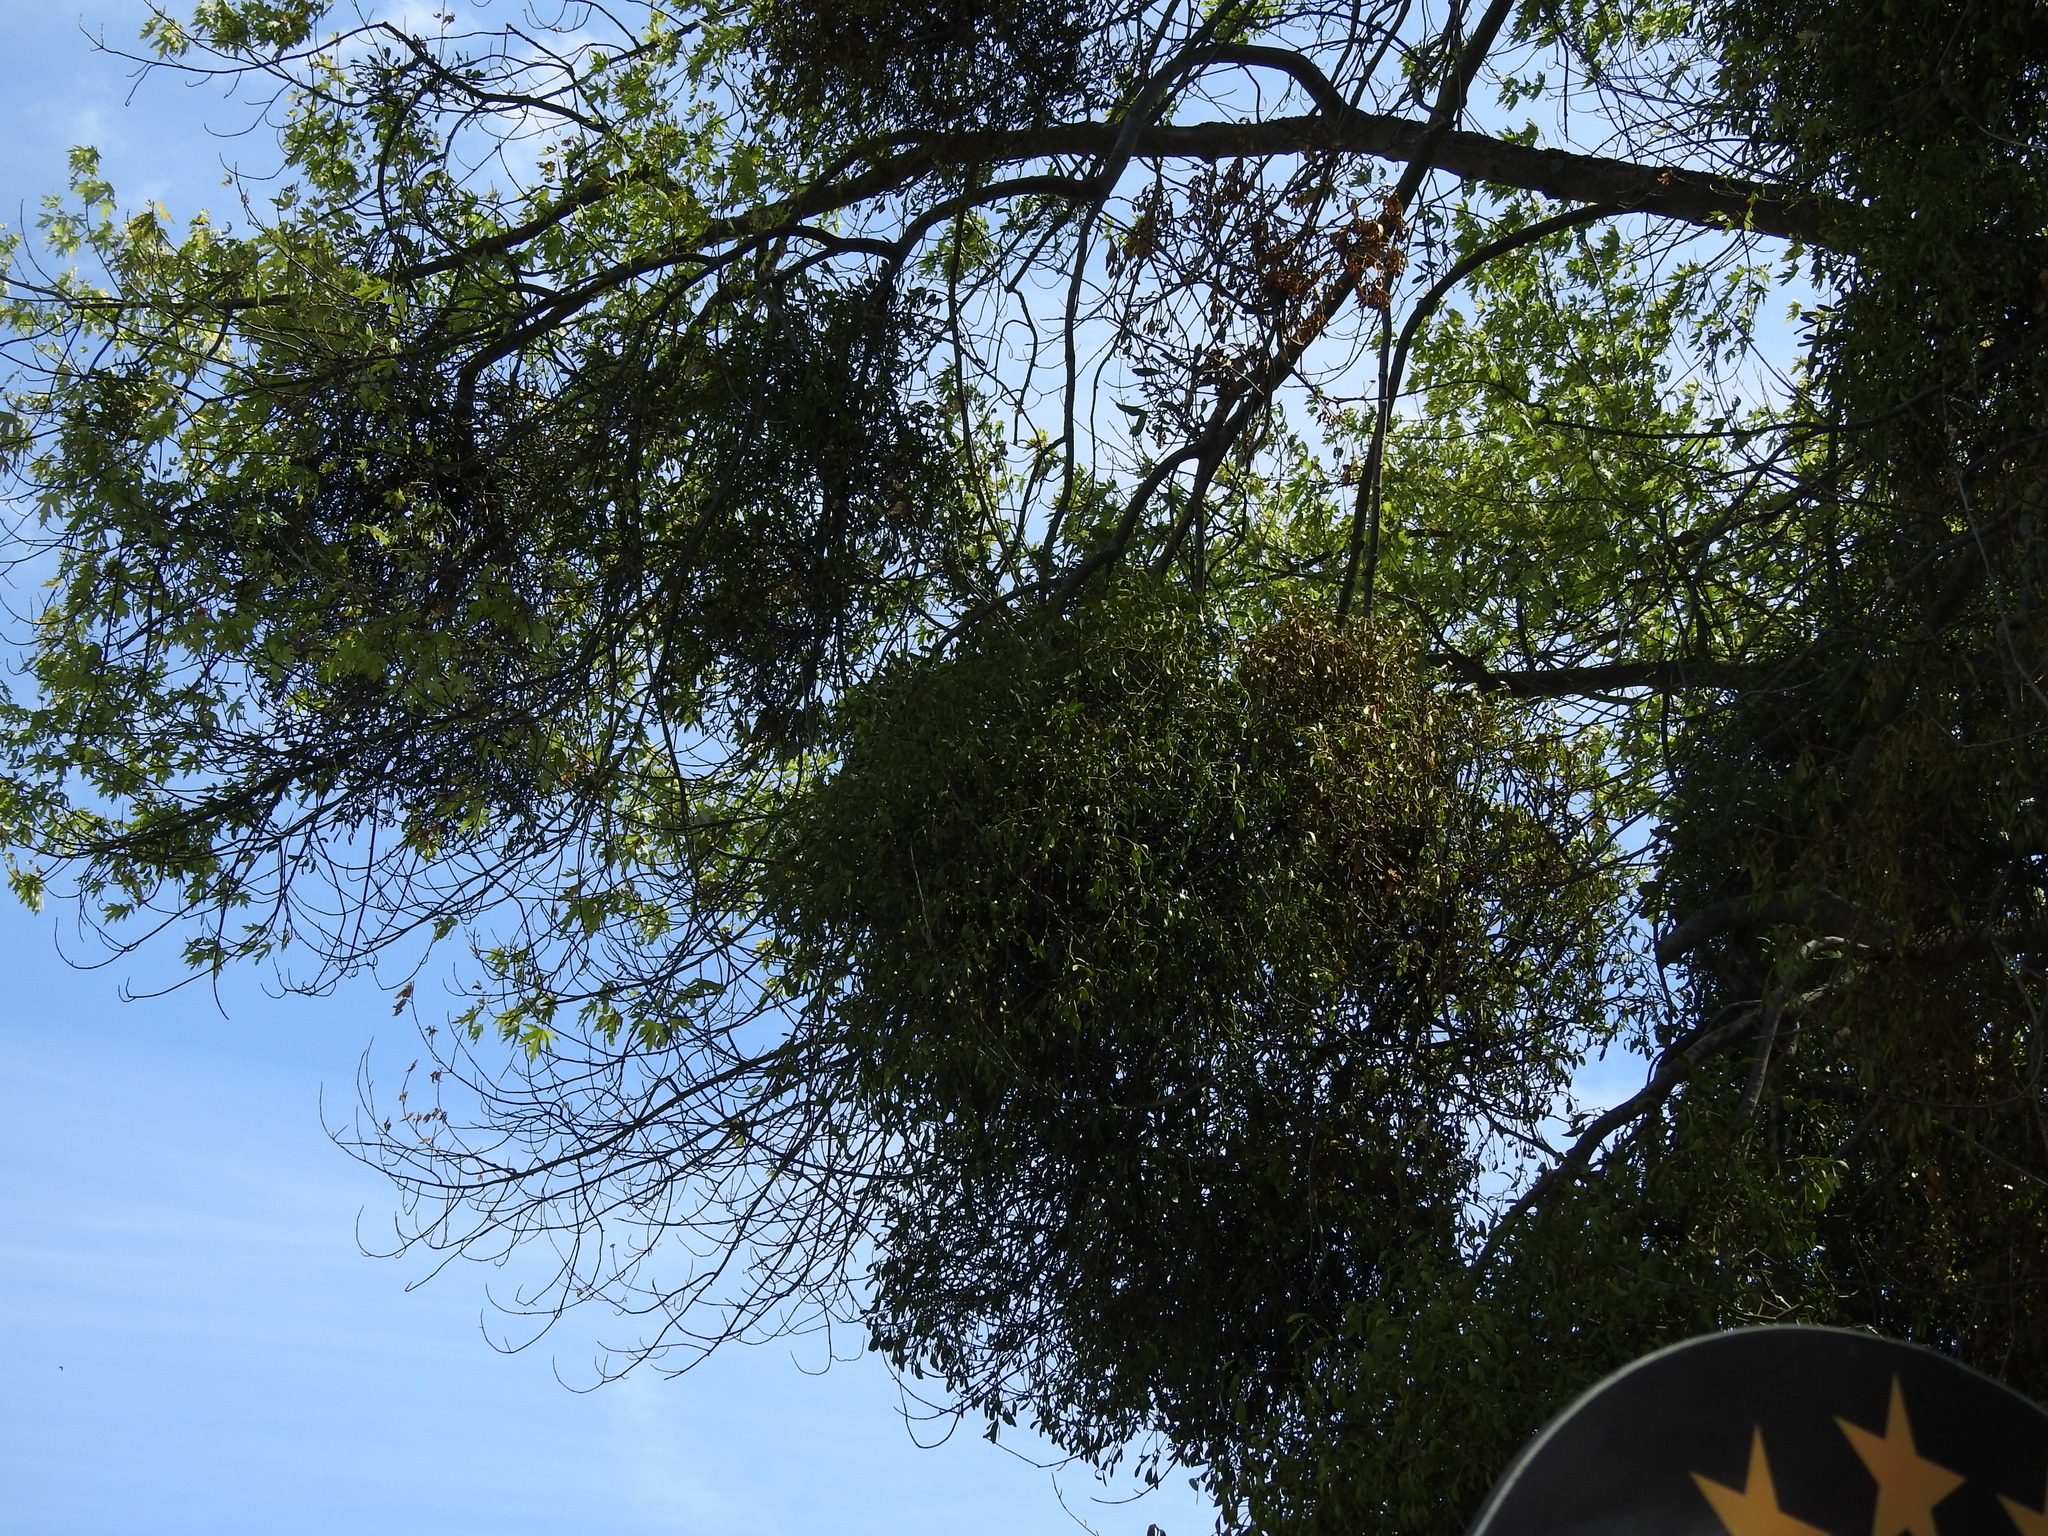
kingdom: Plantae
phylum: Tracheophyta
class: Magnoliopsida
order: Santalales
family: Viscaceae
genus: Viscum
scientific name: Viscum album
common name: Mistletoe
